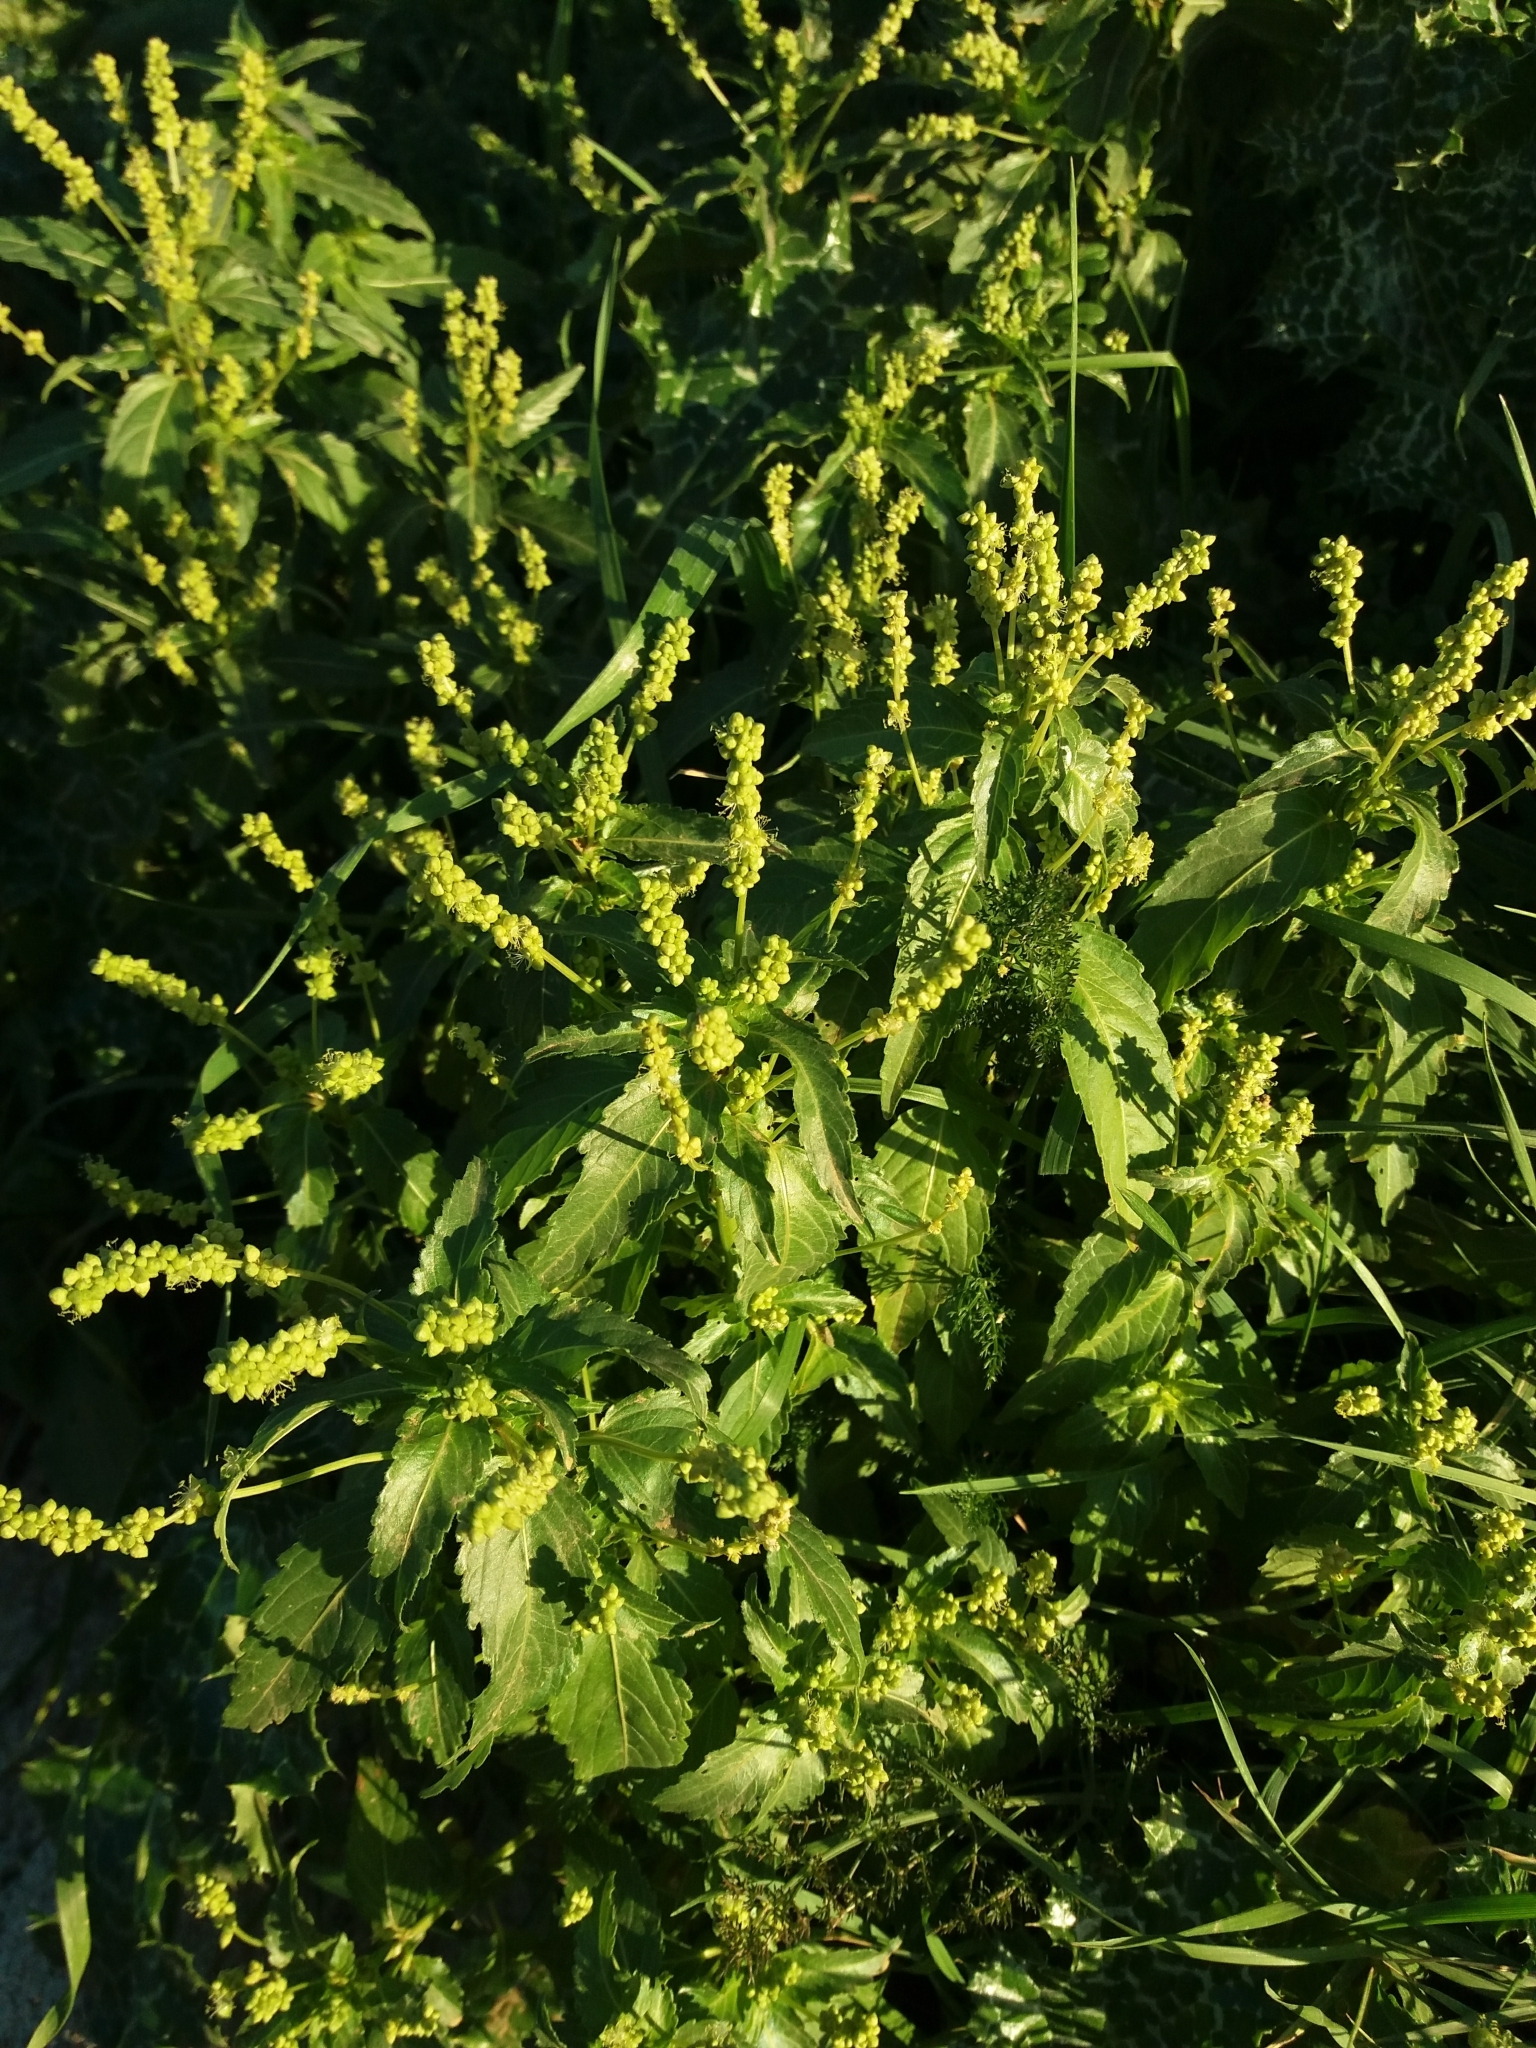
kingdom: Plantae
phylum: Tracheophyta
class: Magnoliopsida
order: Malpighiales
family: Euphorbiaceae
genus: Mercurialis
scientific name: Mercurialis annua
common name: Annual mercury
